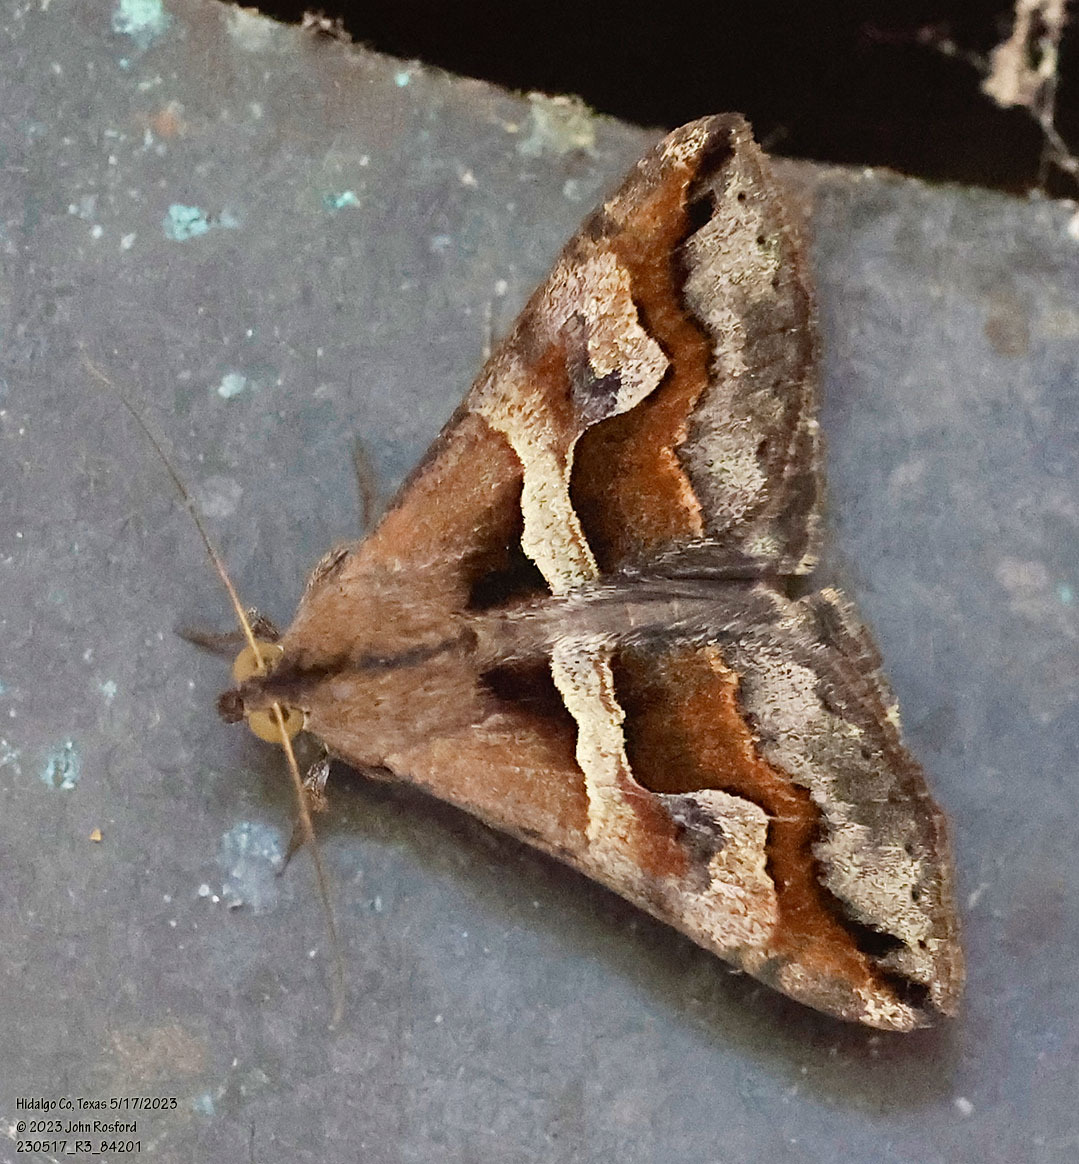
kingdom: Animalia
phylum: Arthropoda
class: Insecta
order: Lepidoptera
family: Erebidae
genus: Melipotis
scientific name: Melipotis cellaris
